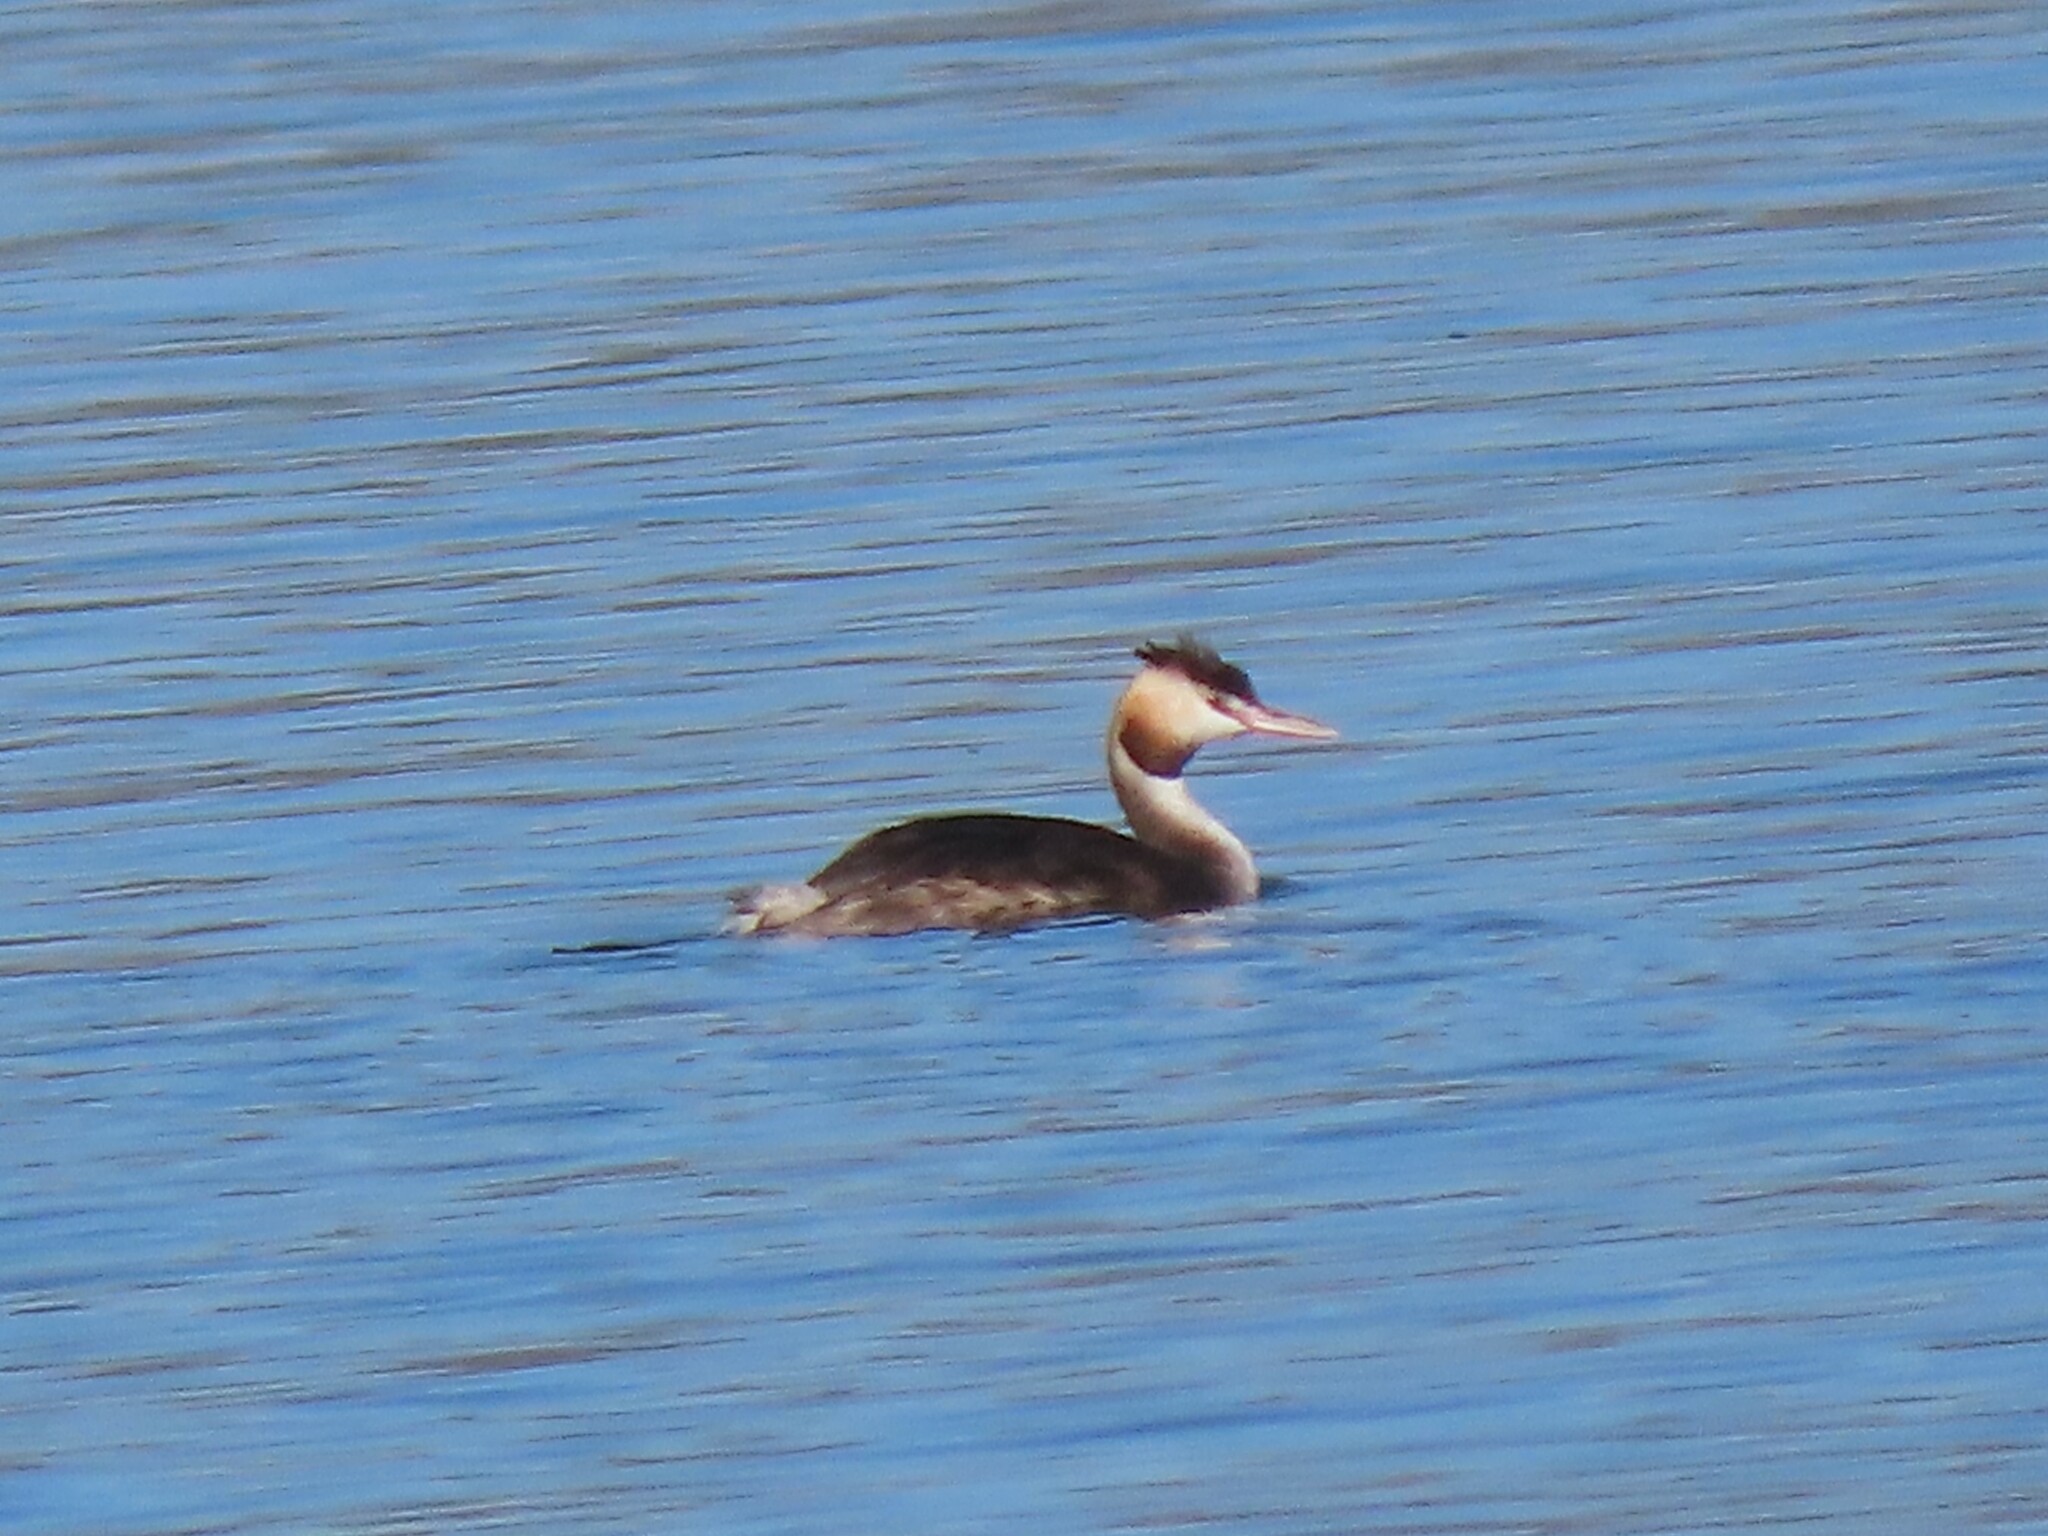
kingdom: Animalia
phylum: Chordata
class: Aves
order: Podicipediformes
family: Podicipedidae
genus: Podiceps
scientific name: Podiceps cristatus
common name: Great crested grebe
